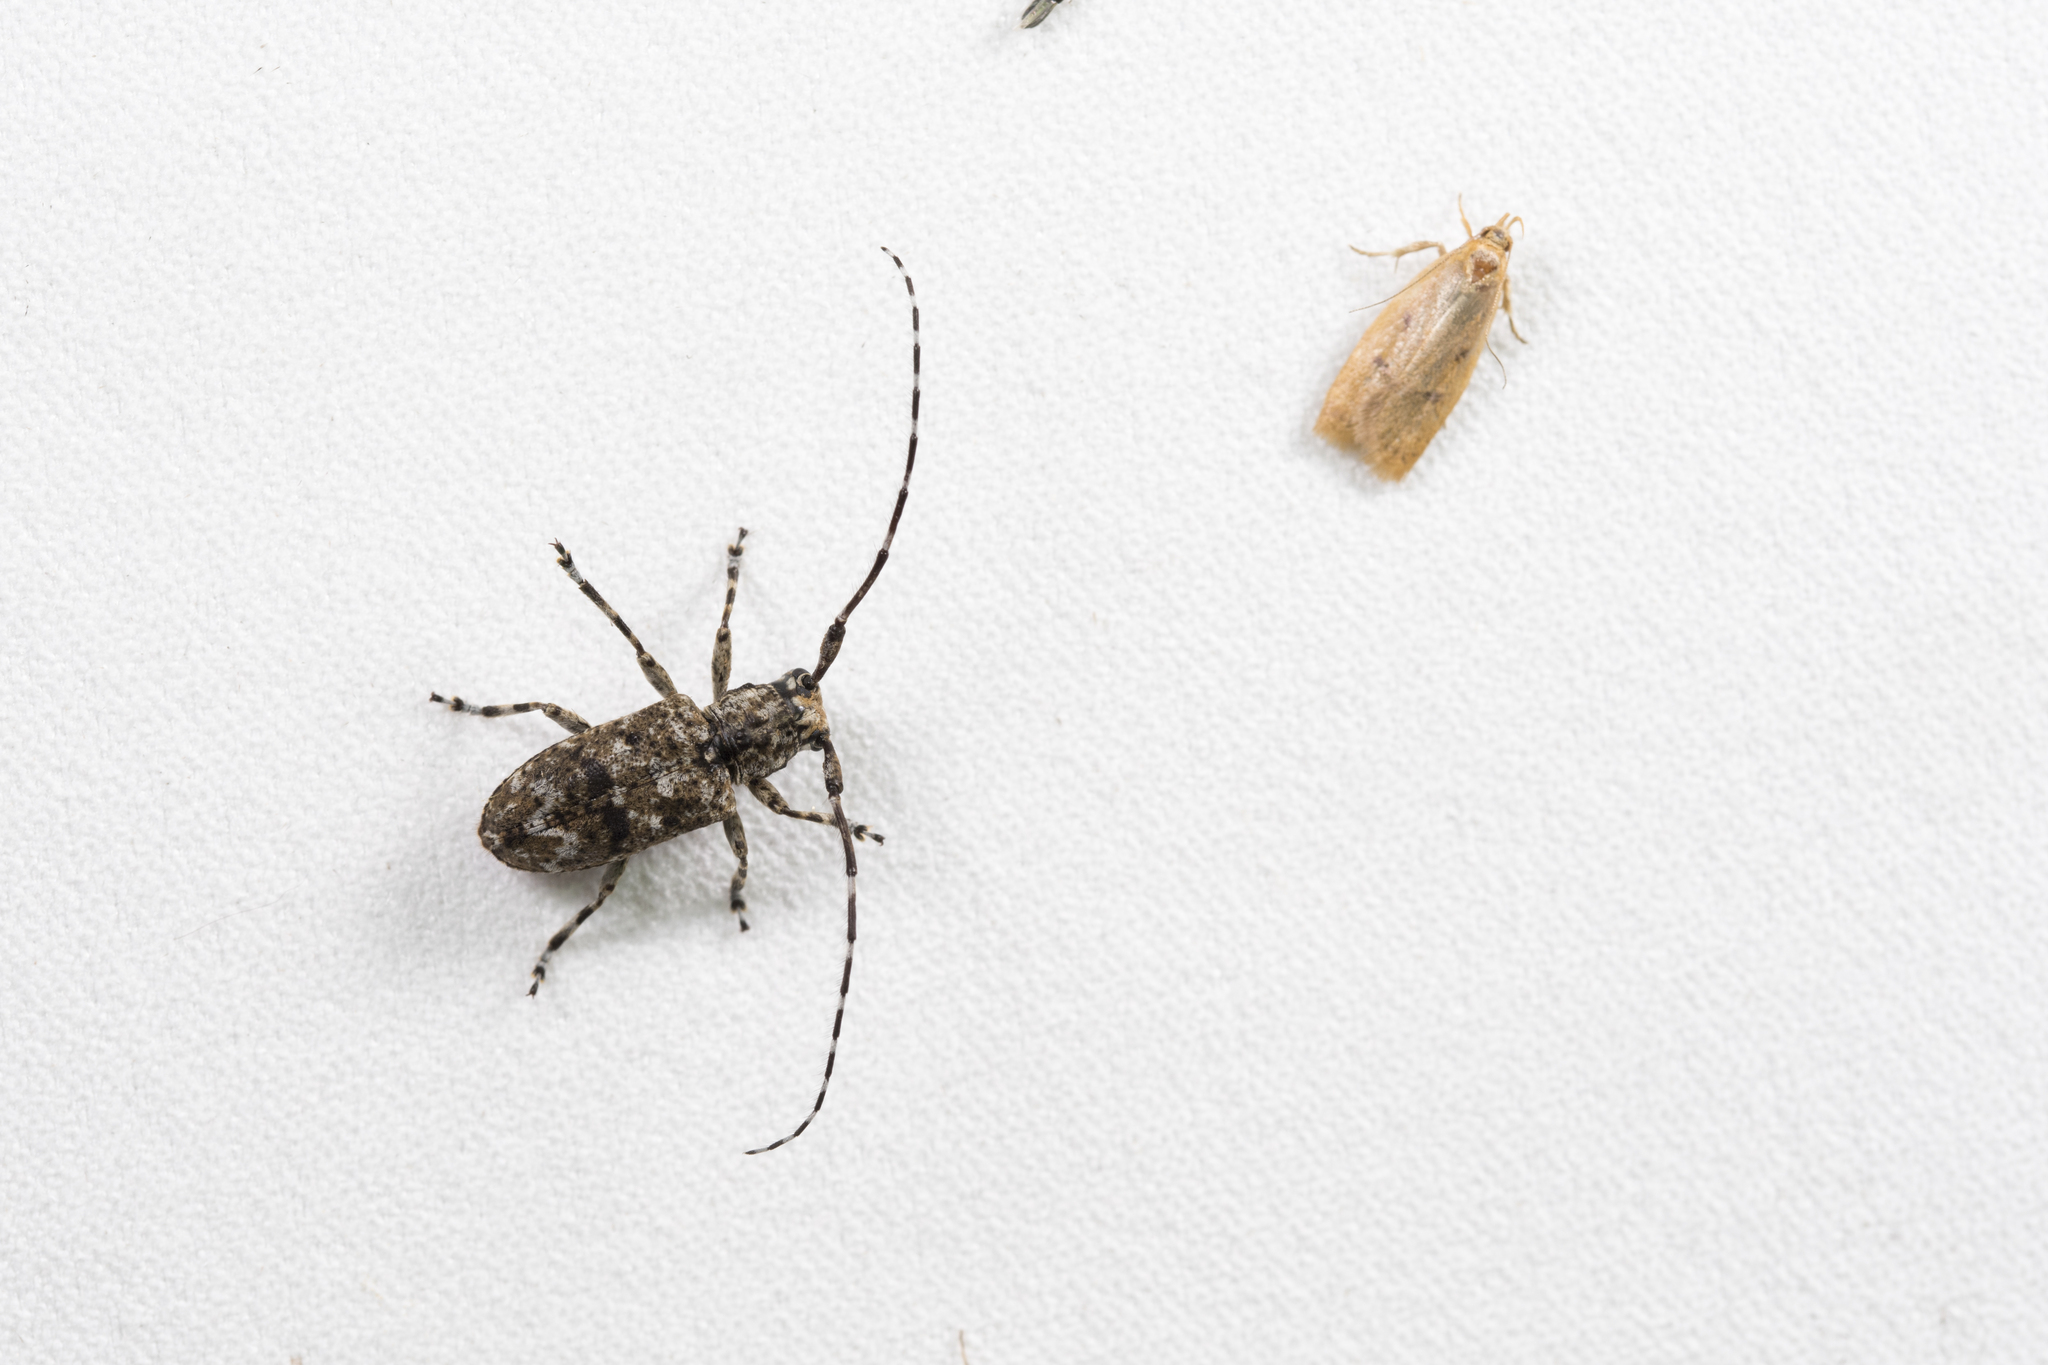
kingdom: Animalia
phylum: Arthropoda
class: Insecta
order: Coleoptera
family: Cerambycidae
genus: Mutatocoptops
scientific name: Mutatocoptops anancyloides
